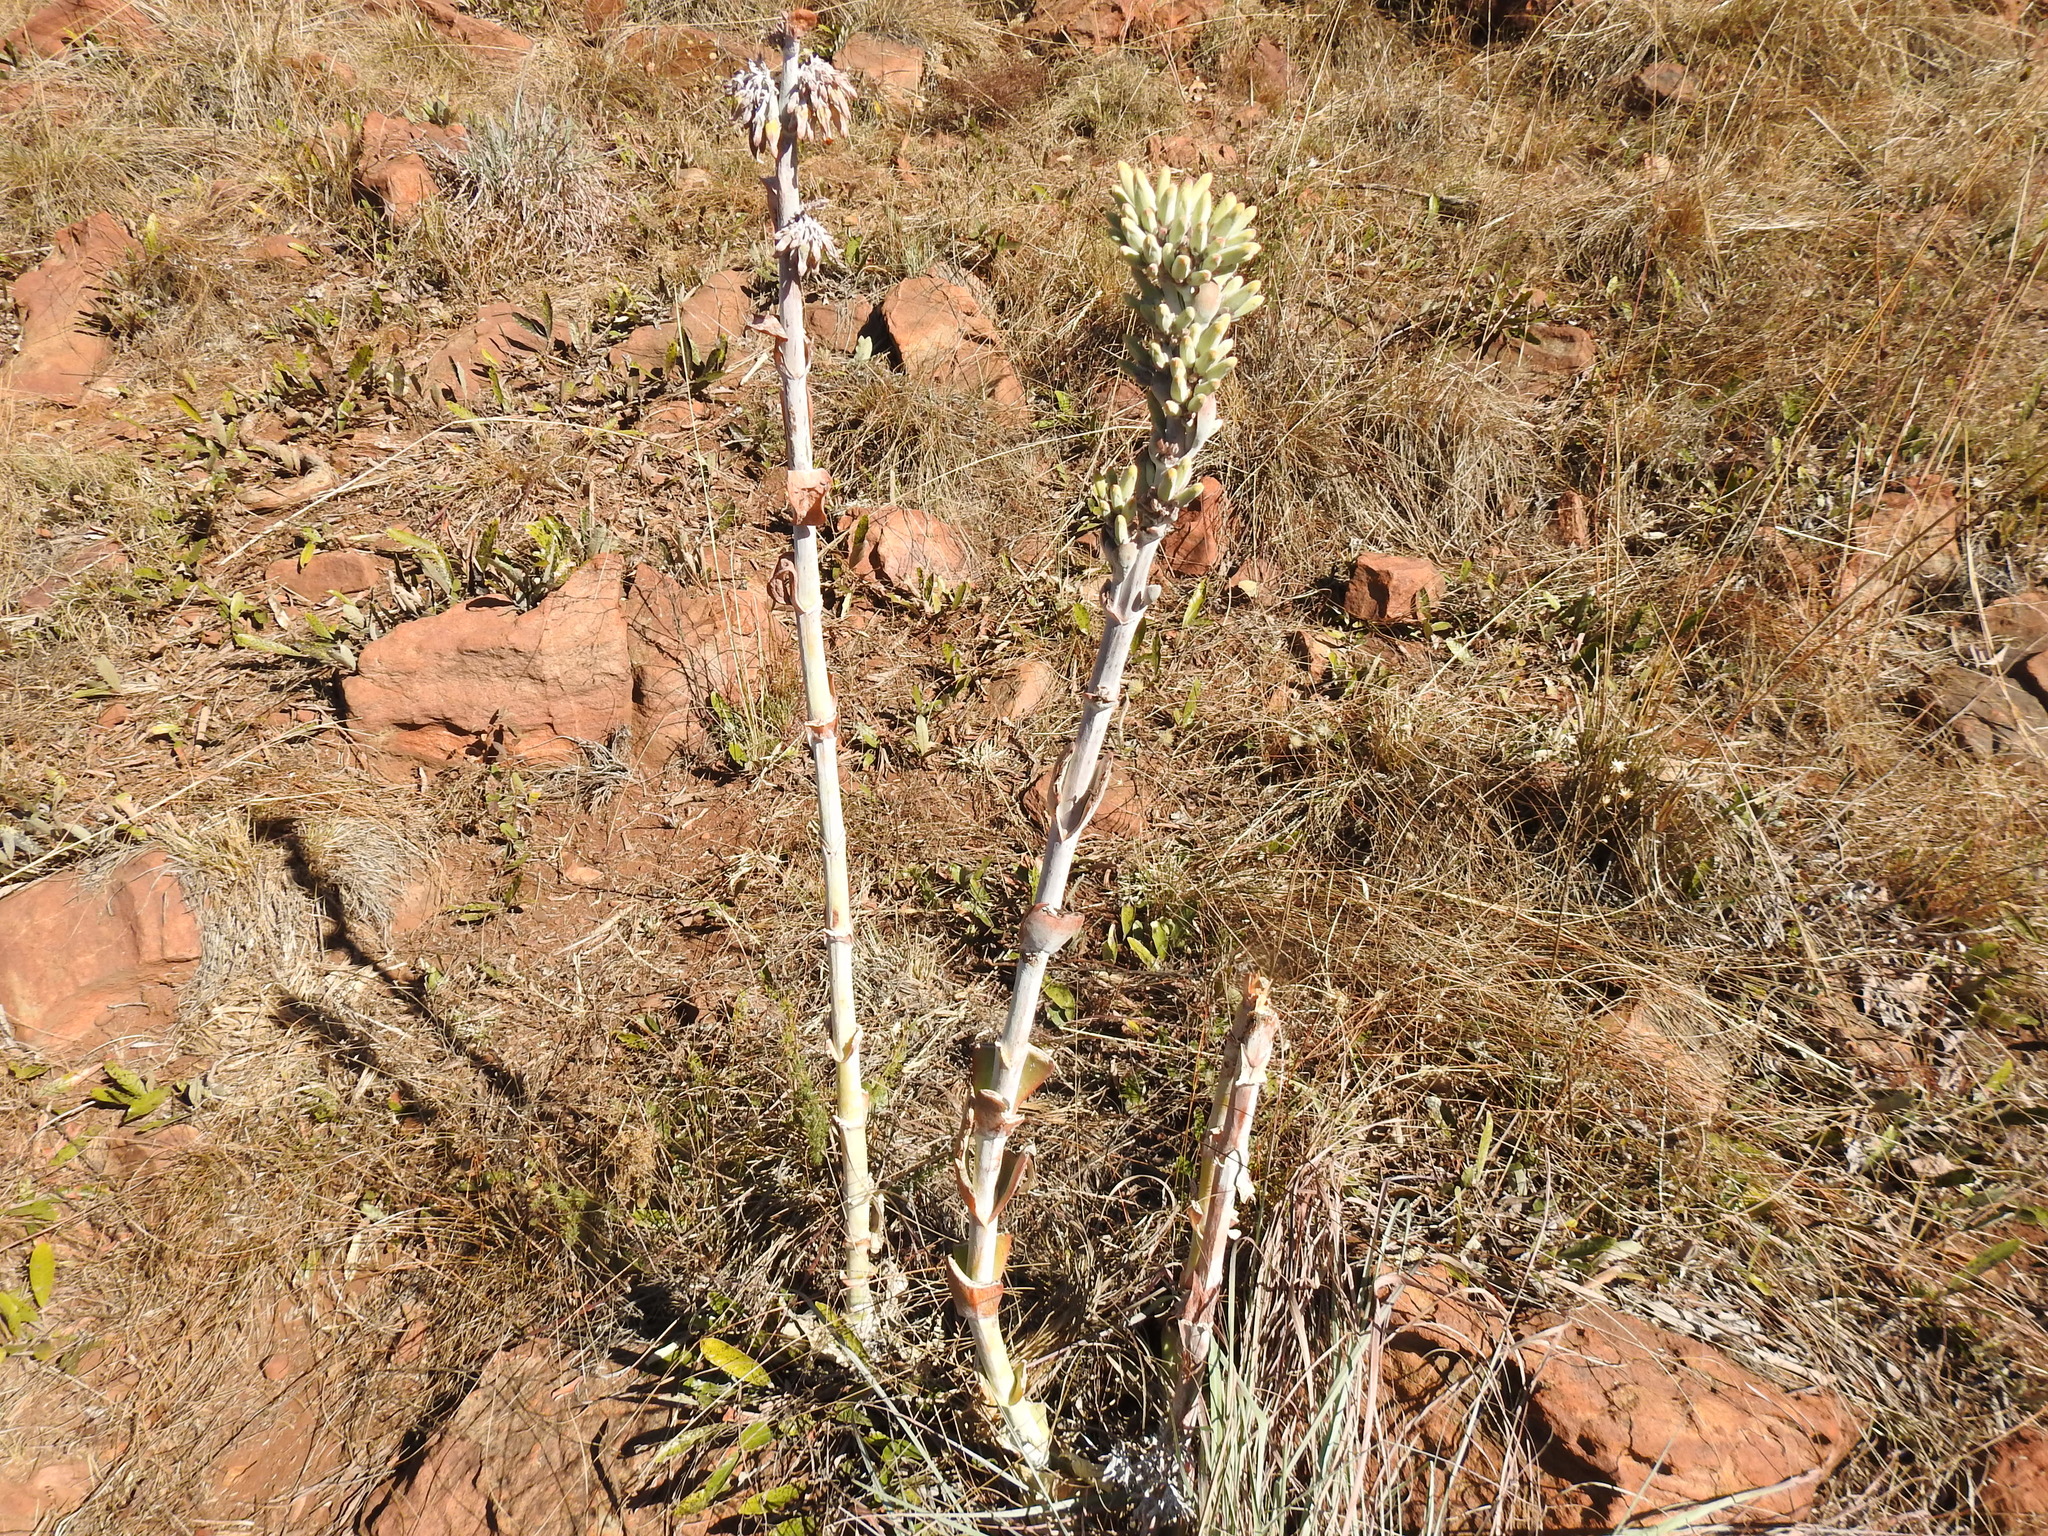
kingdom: Plantae
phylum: Tracheophyta
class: Magnoliopsida
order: Saxifragales
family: Crassulaceae
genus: Kalanchoe
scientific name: Kalanchoe thyrsiflora
